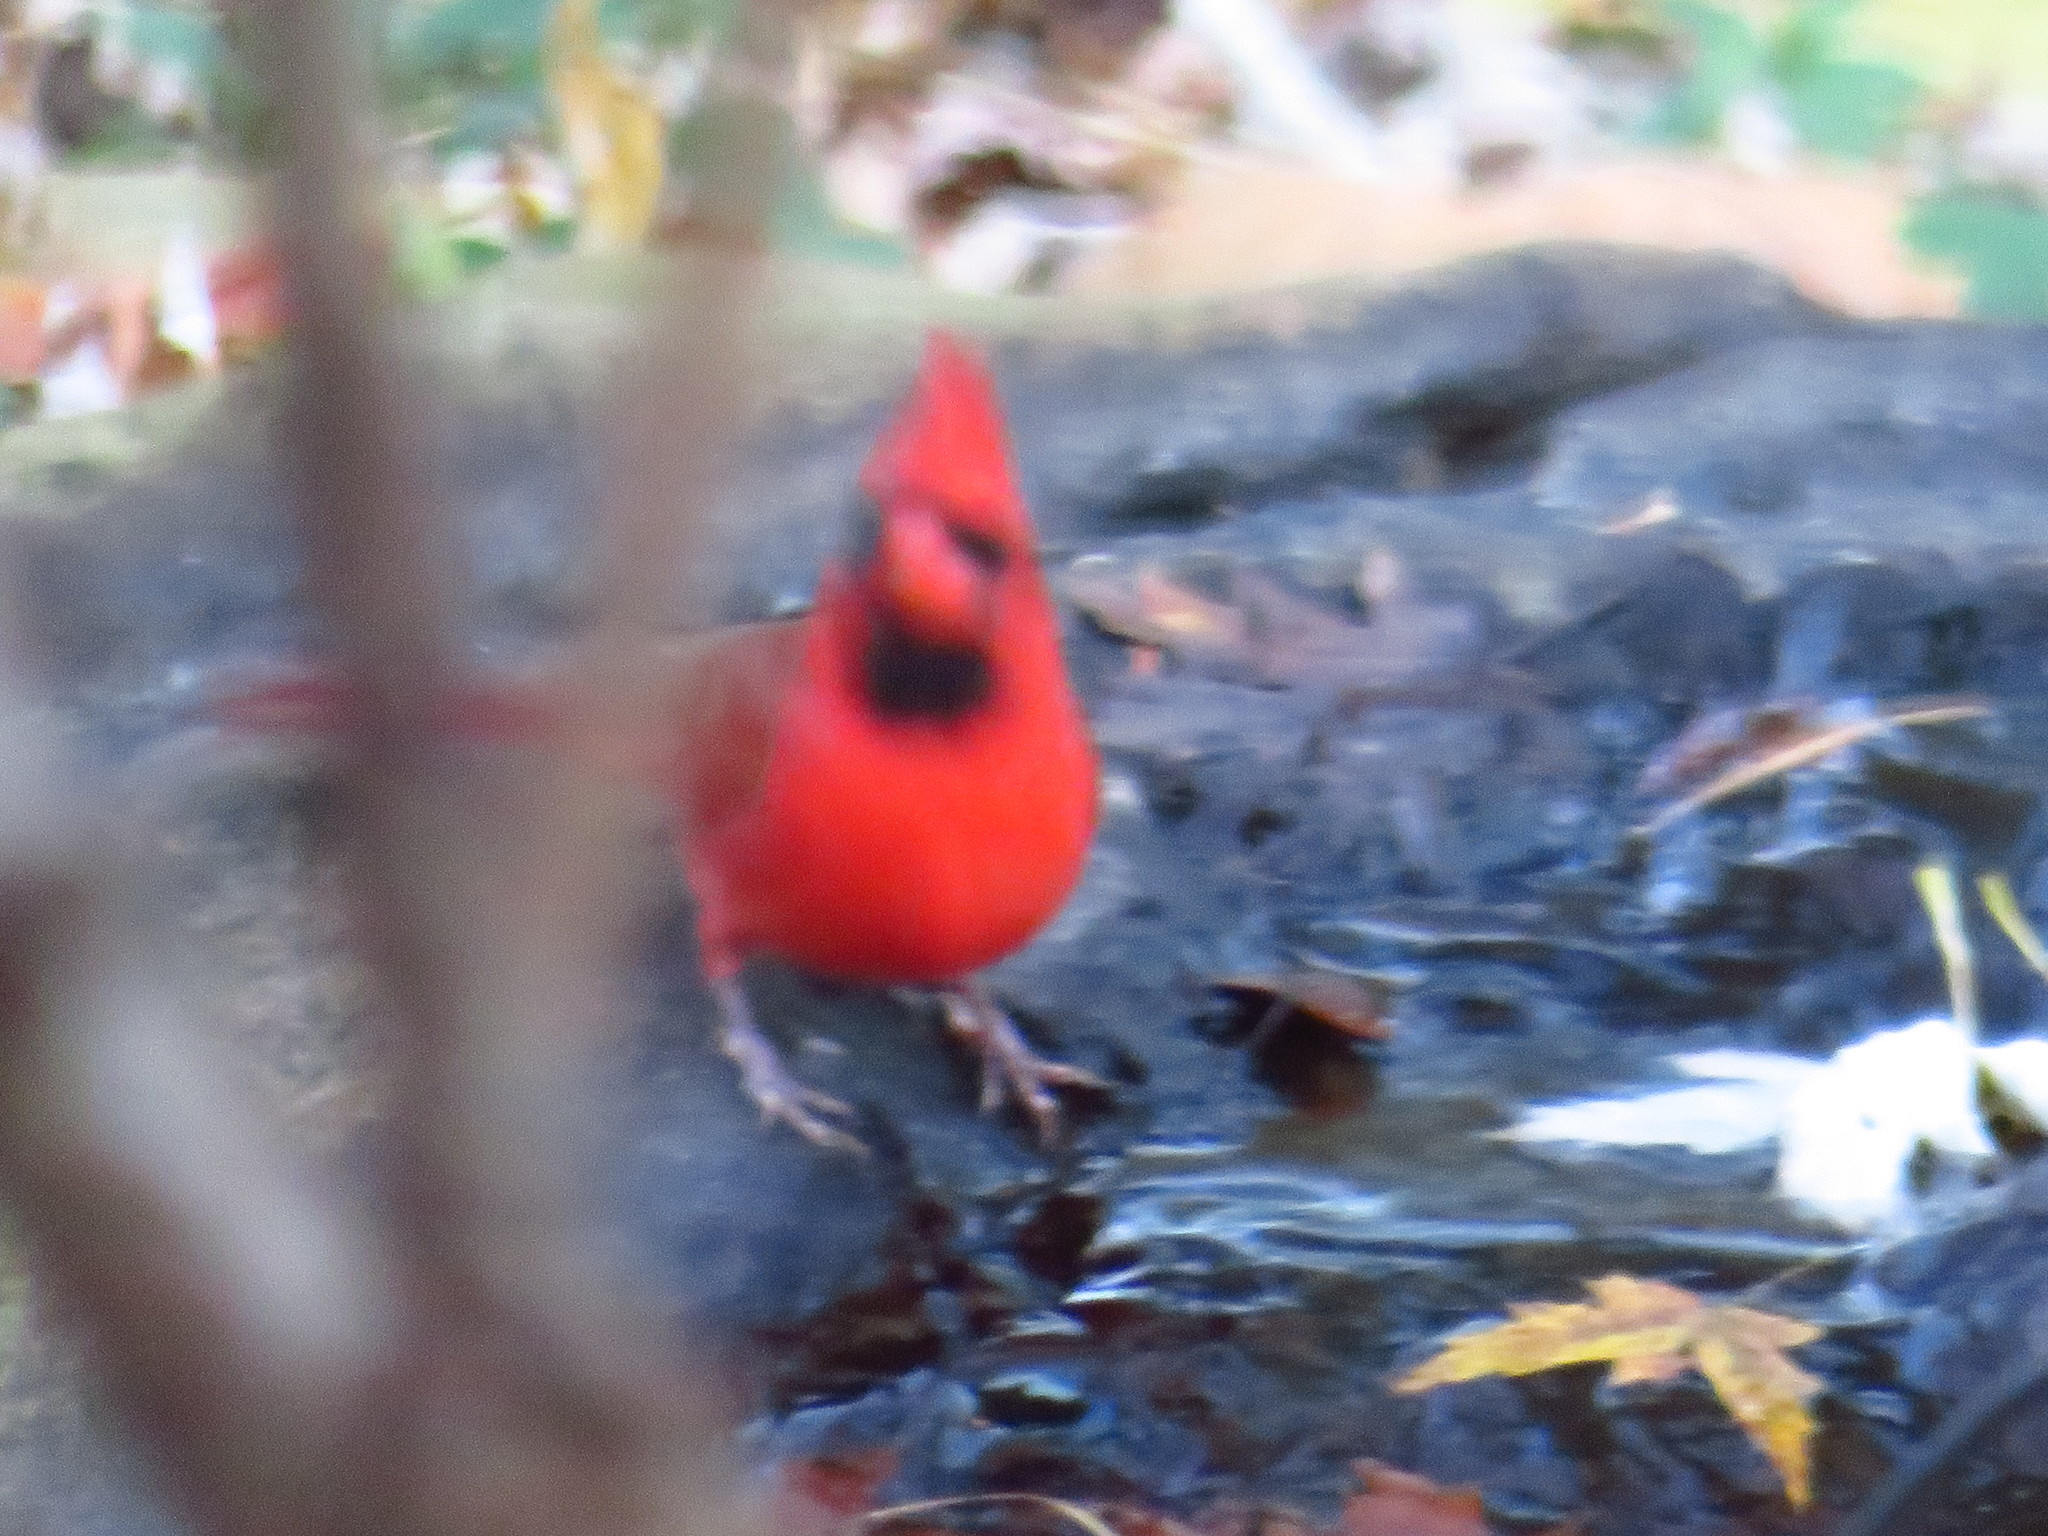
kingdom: Animalia
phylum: Chordata
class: Aves
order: Passeriformes
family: Cardinalidae
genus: Cardinalis
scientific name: Cardinalis cardinalis
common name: Northern cardinal
